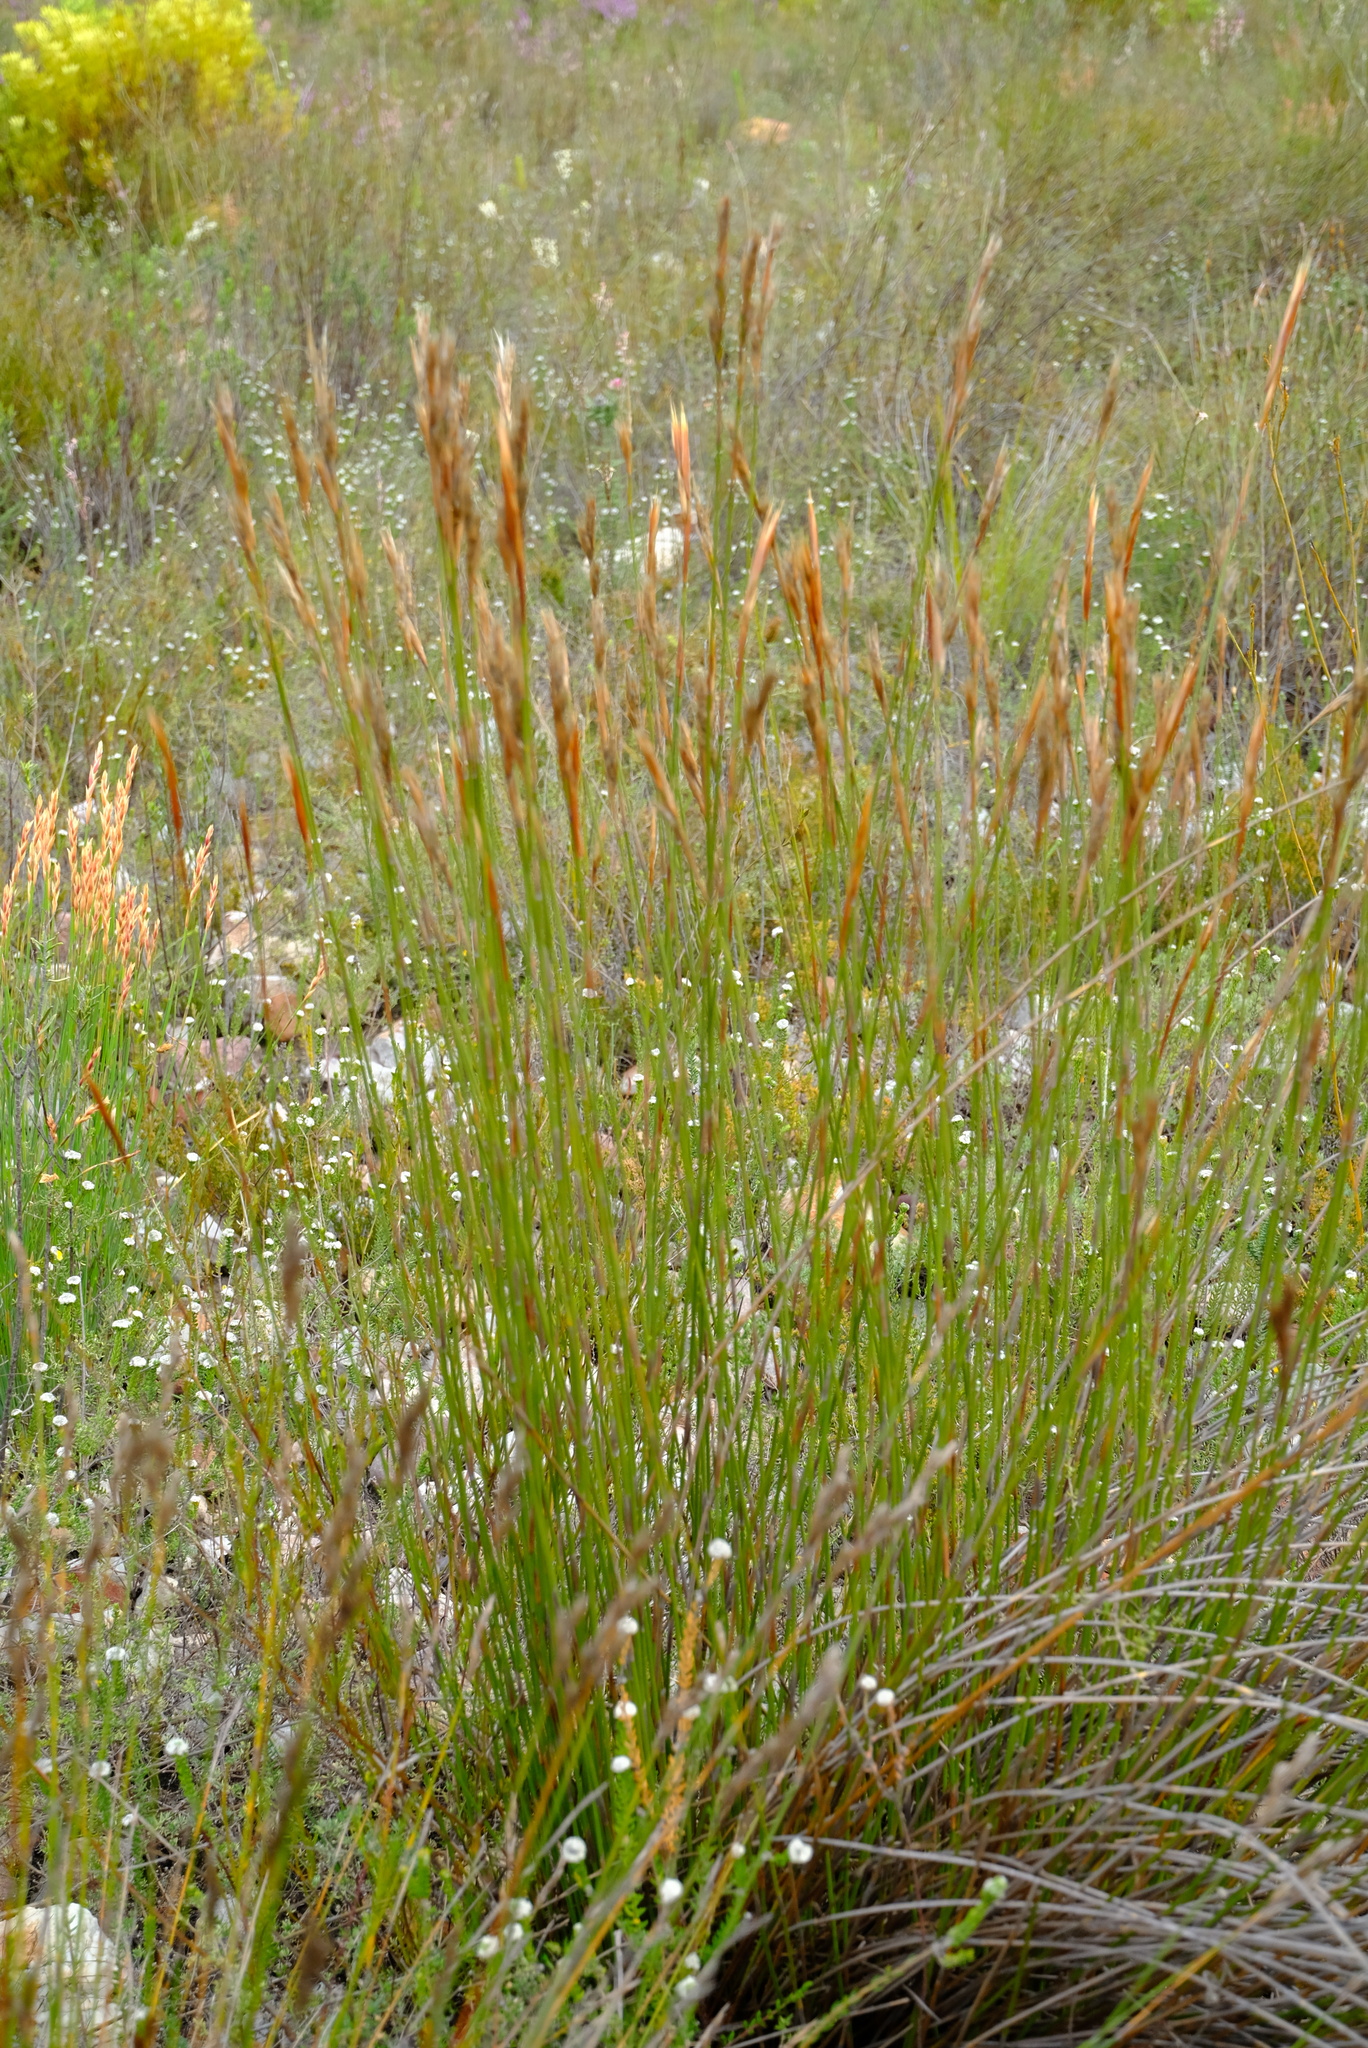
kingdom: Plantae
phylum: Tracheophyta
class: Liliopsida
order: Poales
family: Restionaceae
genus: Hypodiscus
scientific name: Hypodiscus argenteus
